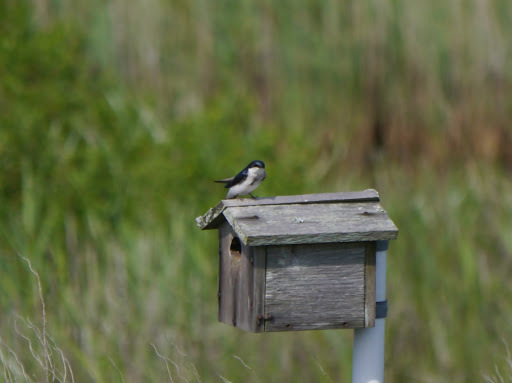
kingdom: Animalia
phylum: Chordata
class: Aves
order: Passeriformes
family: Hirundinidae
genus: Tachycineta
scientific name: Tachycineta bicolor
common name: Tree swallow
